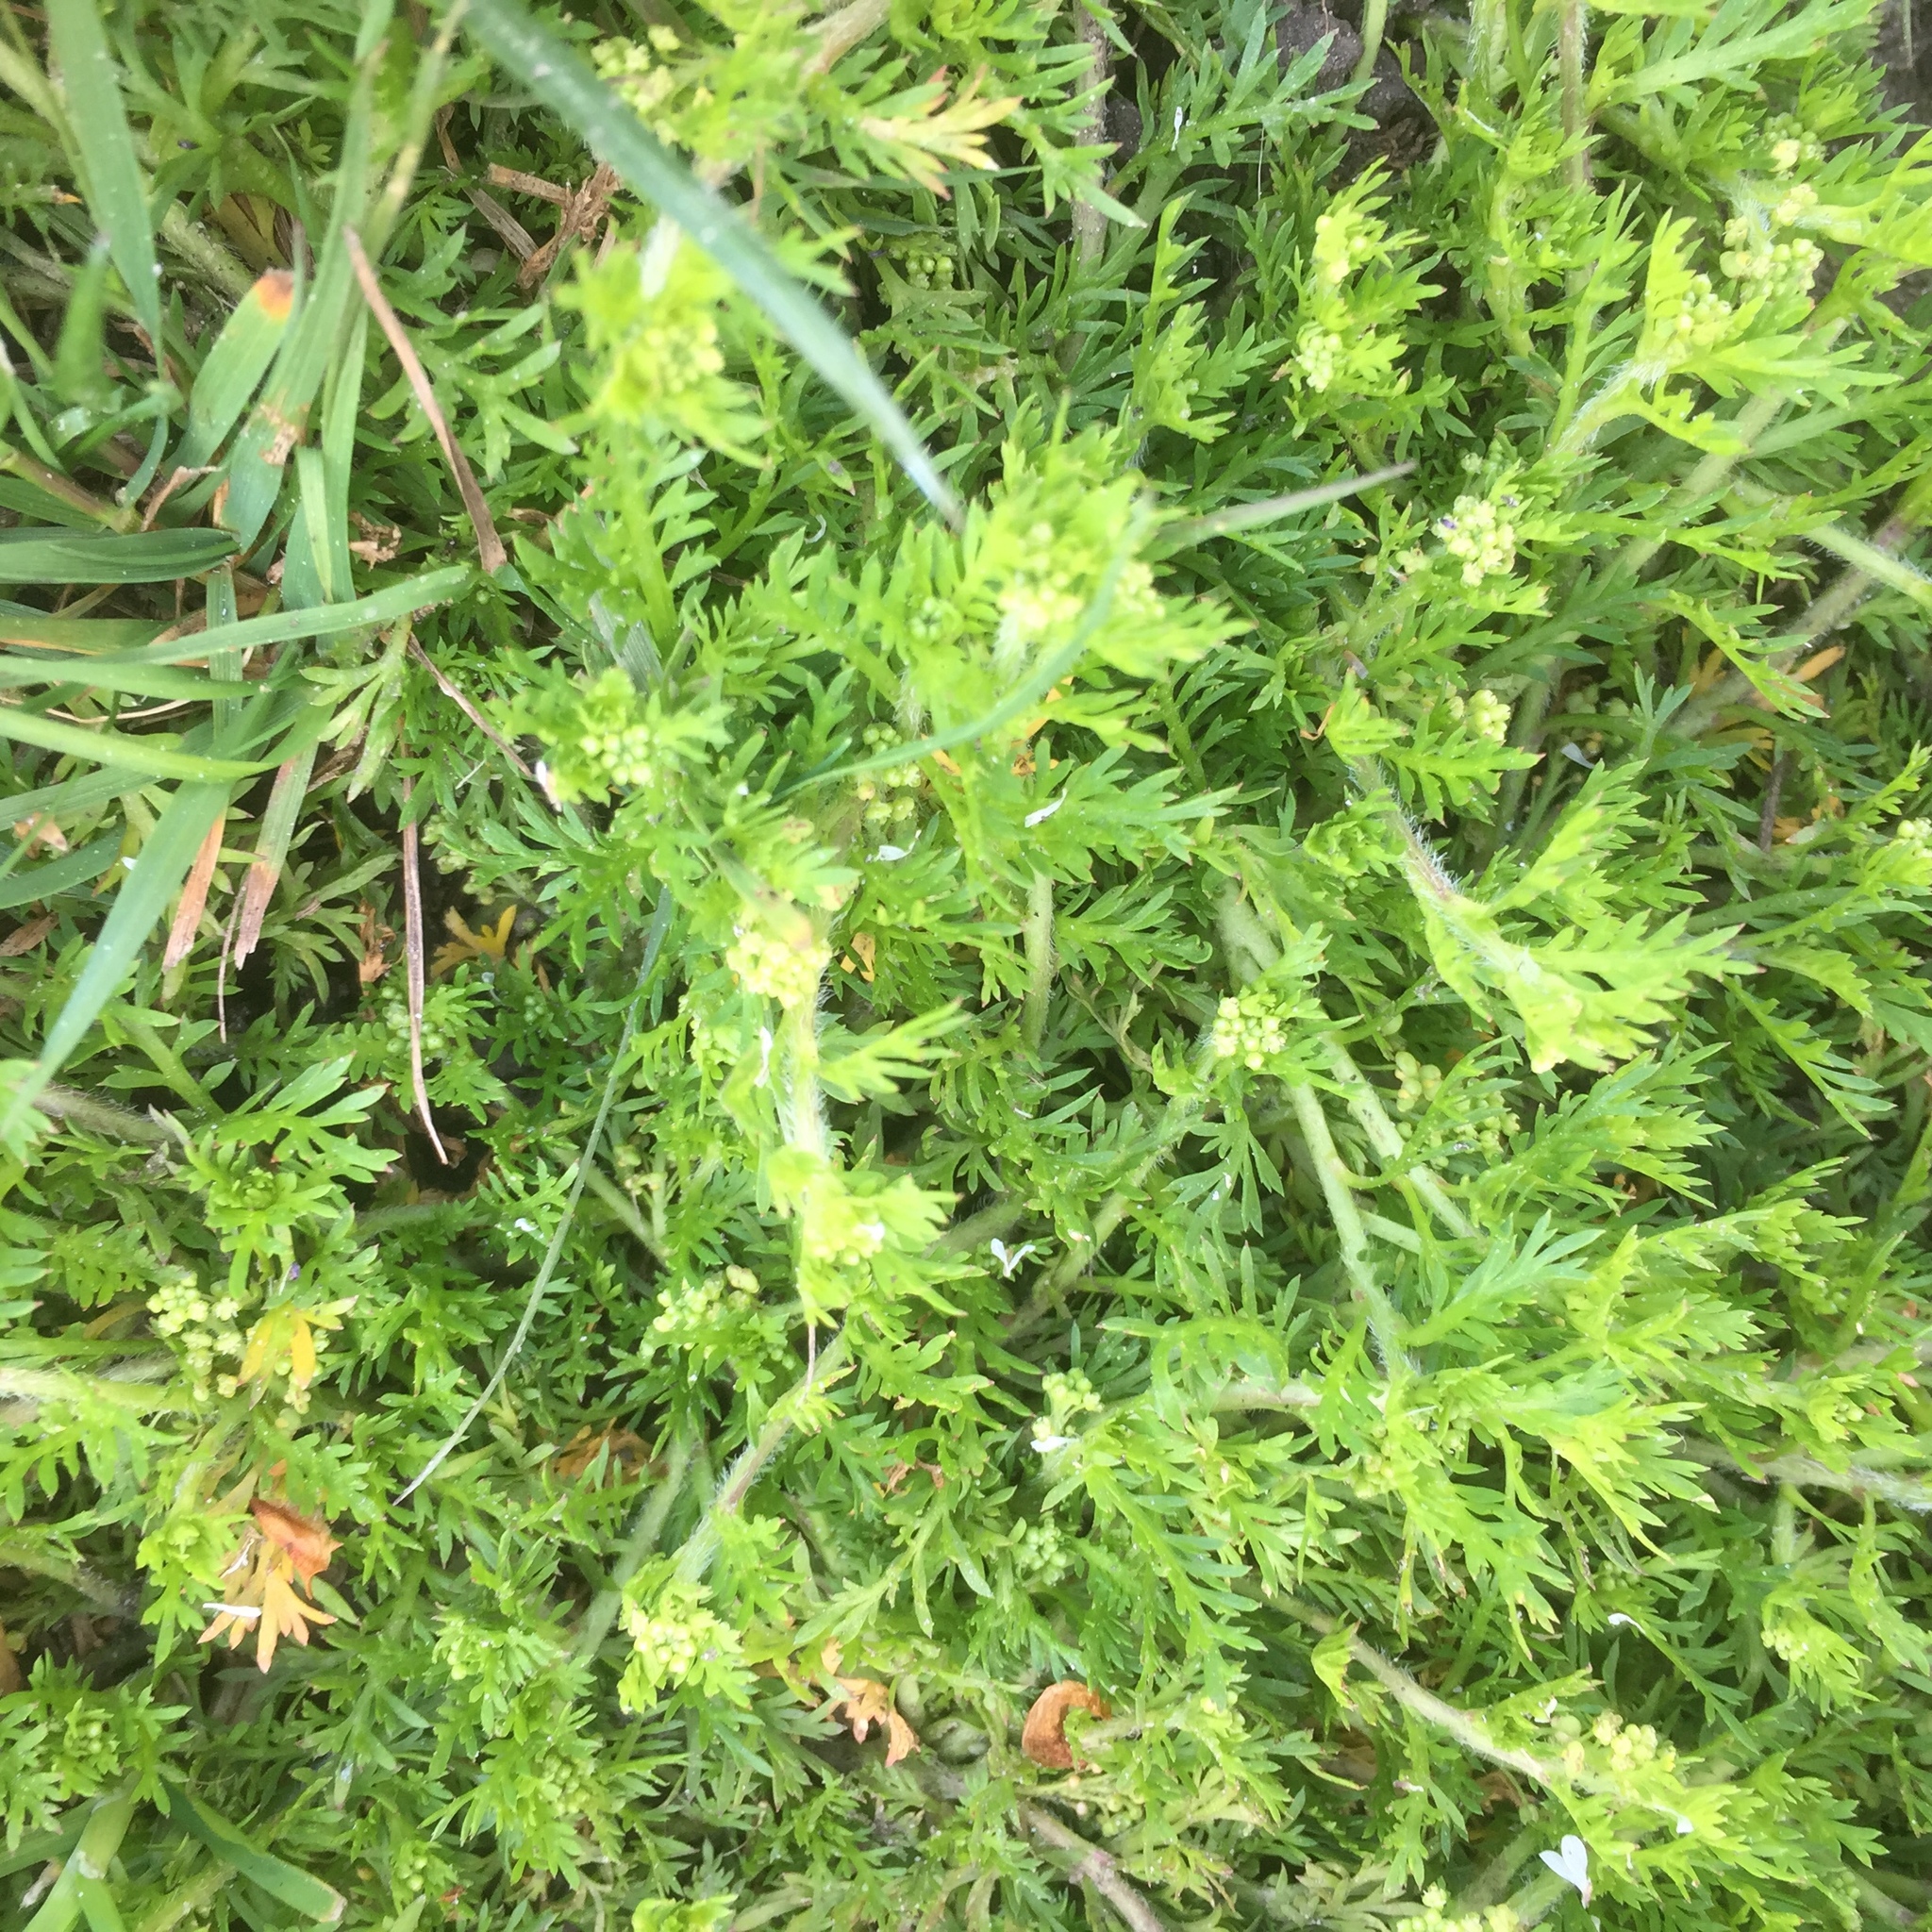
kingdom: Plantae
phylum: Tracheophyta
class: Magnoliopsida
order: Brassicales
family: Brassicaceae
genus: Lepidium
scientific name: Lepidium didymum
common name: Lesser swinecress
